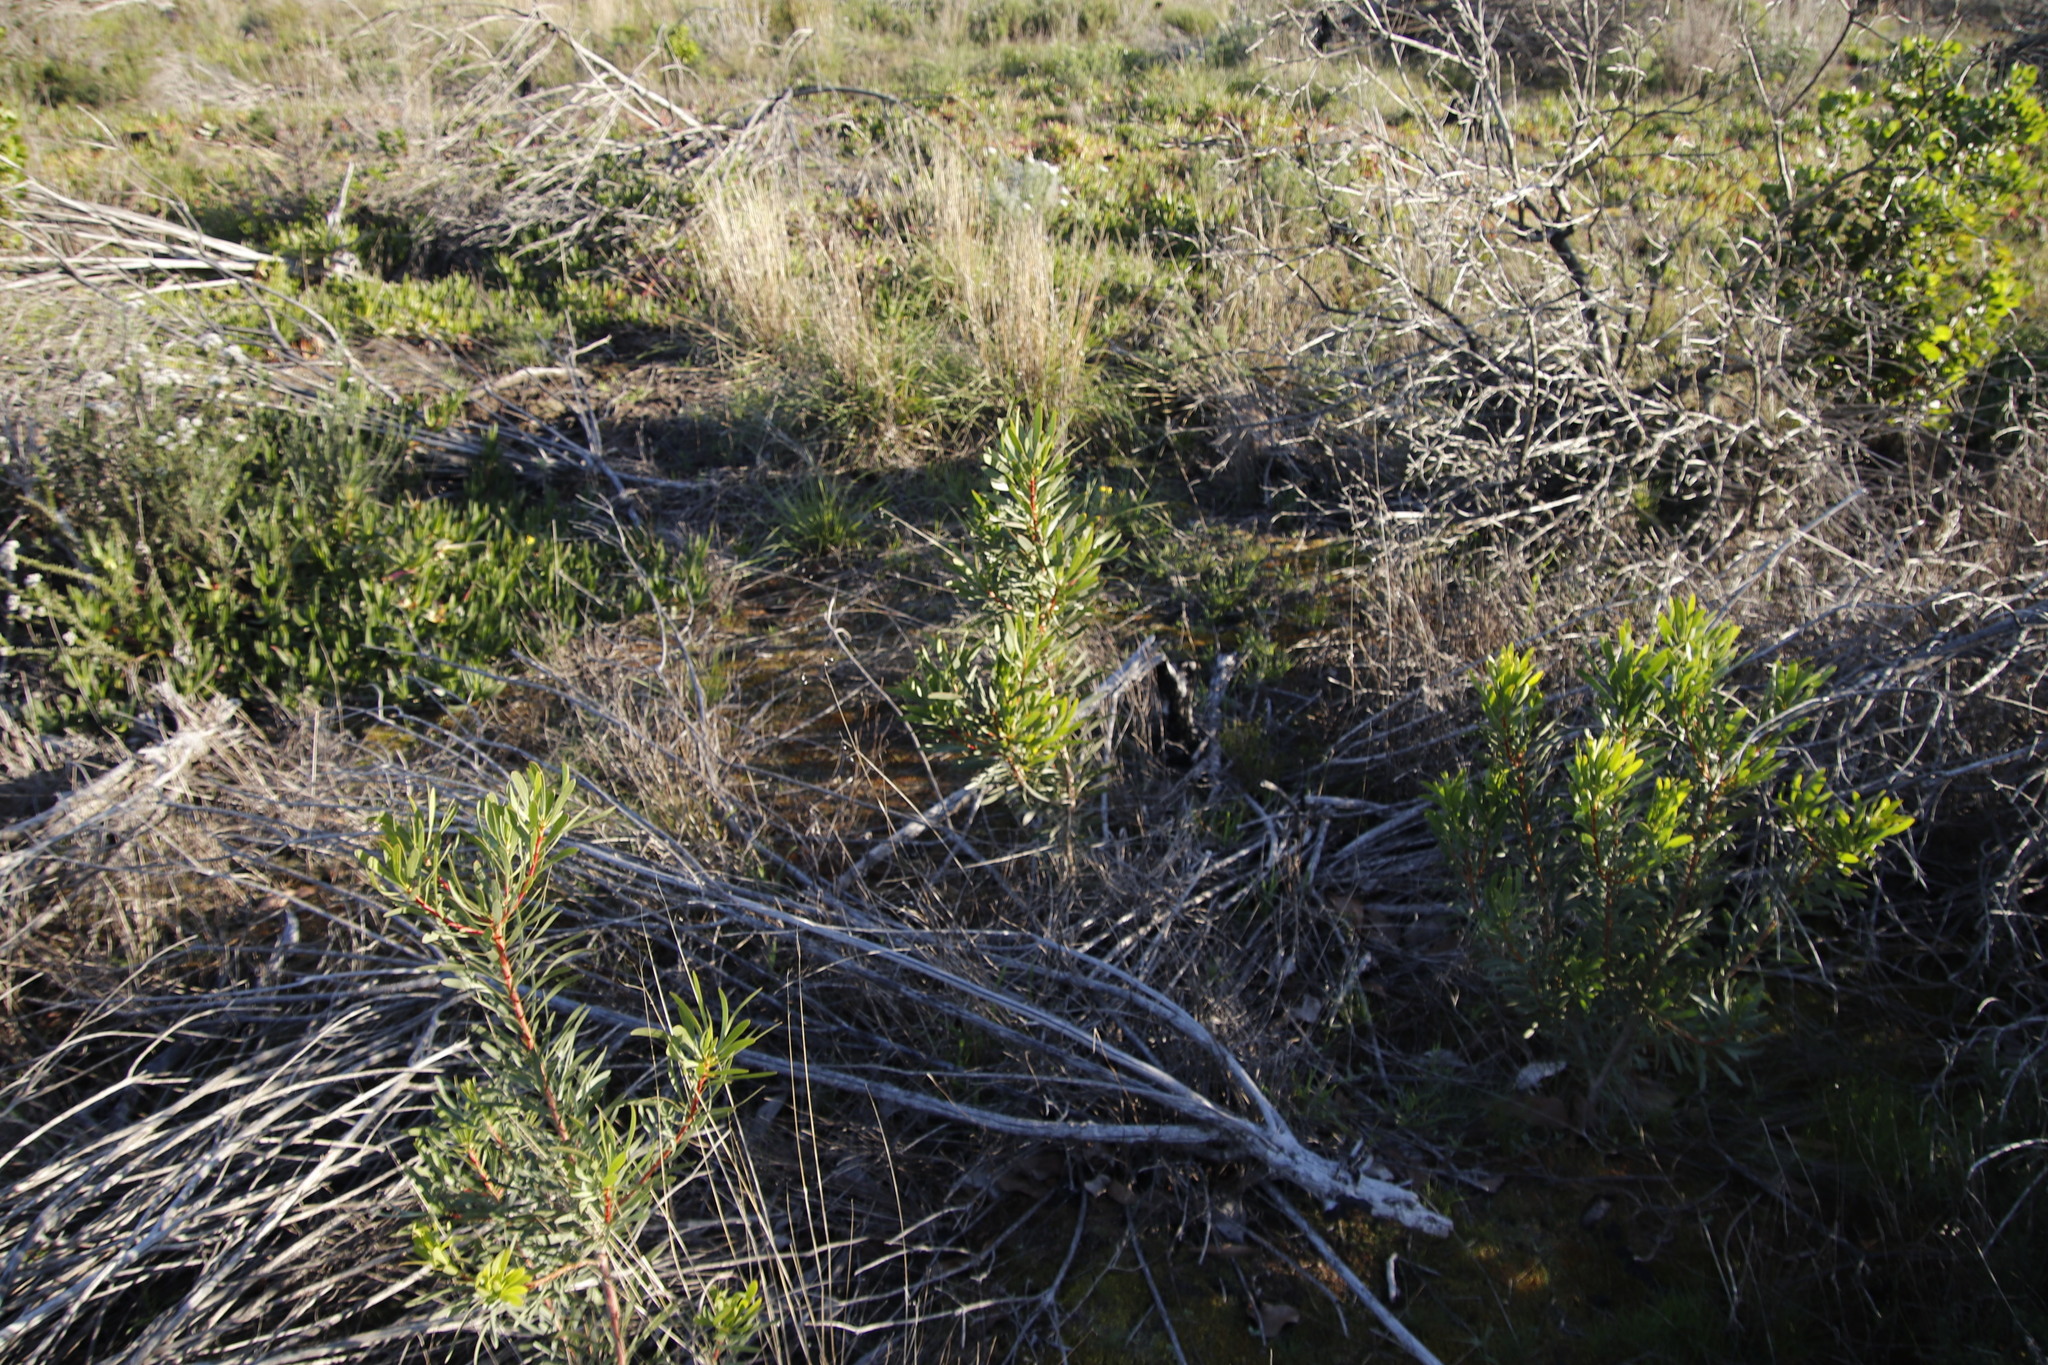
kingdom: Plantae
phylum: Tracheophyta
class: Magnoliopsida
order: Proteales
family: Proteaceae
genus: Protea
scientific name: Protea repens
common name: Sugarbush
